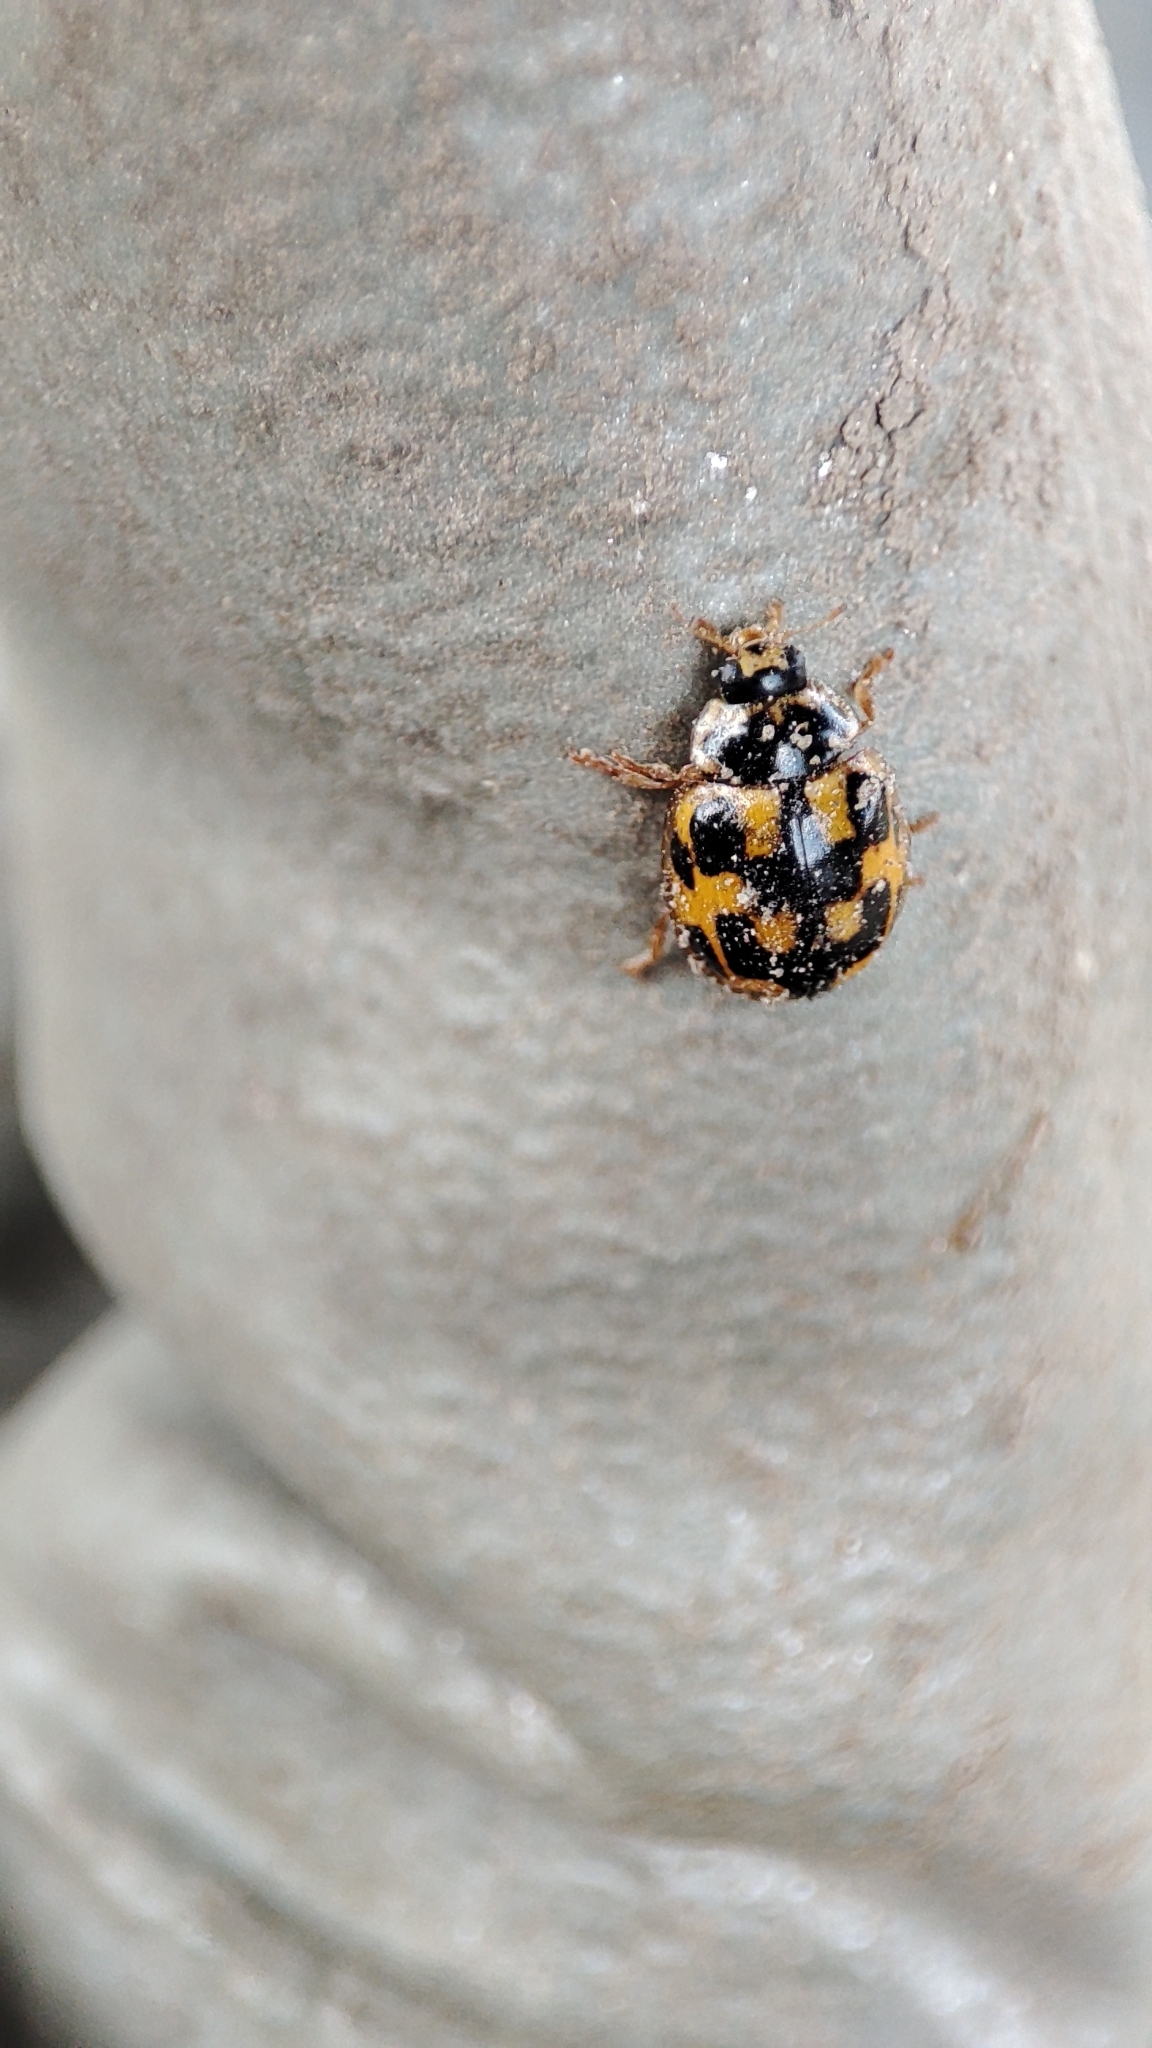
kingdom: Animalia
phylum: Arthropoda
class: Insecta
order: Coleoptera
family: Coccinellidae
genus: Propylaea
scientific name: Propylaea quatuordecimpunctata
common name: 14-spotted ladybird beetle
